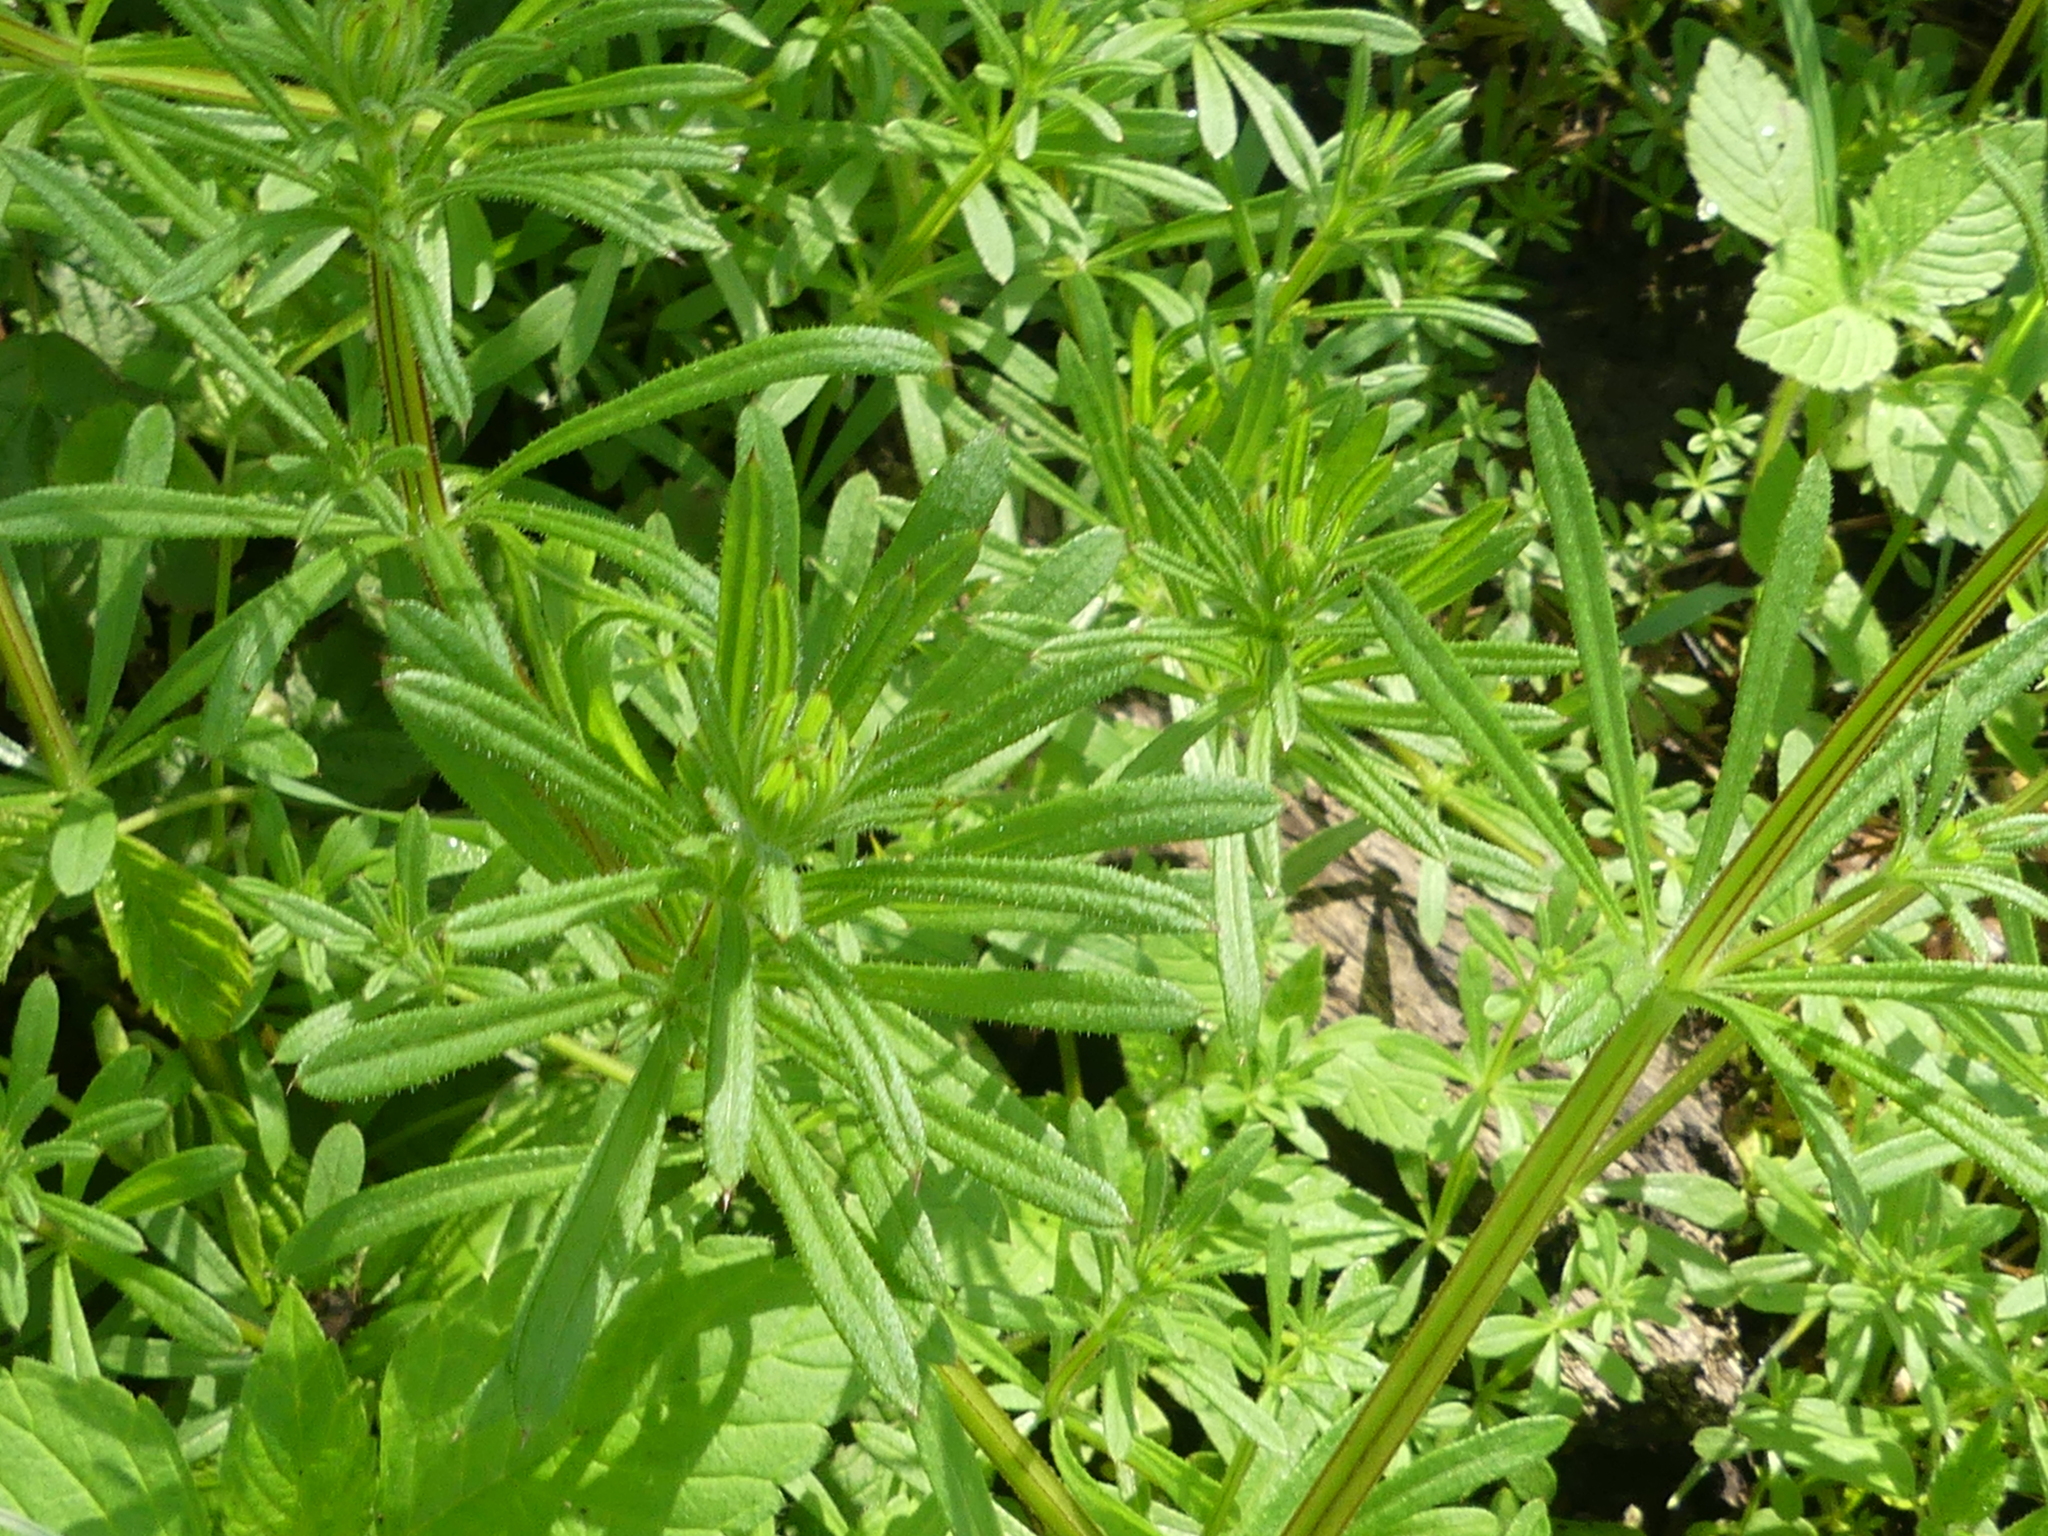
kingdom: Plantae
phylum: Tracheophyta
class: Magnoliopsida
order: Gentianales
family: Rubiaceae
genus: Galium
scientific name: Galium aparine
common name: Cleavers
